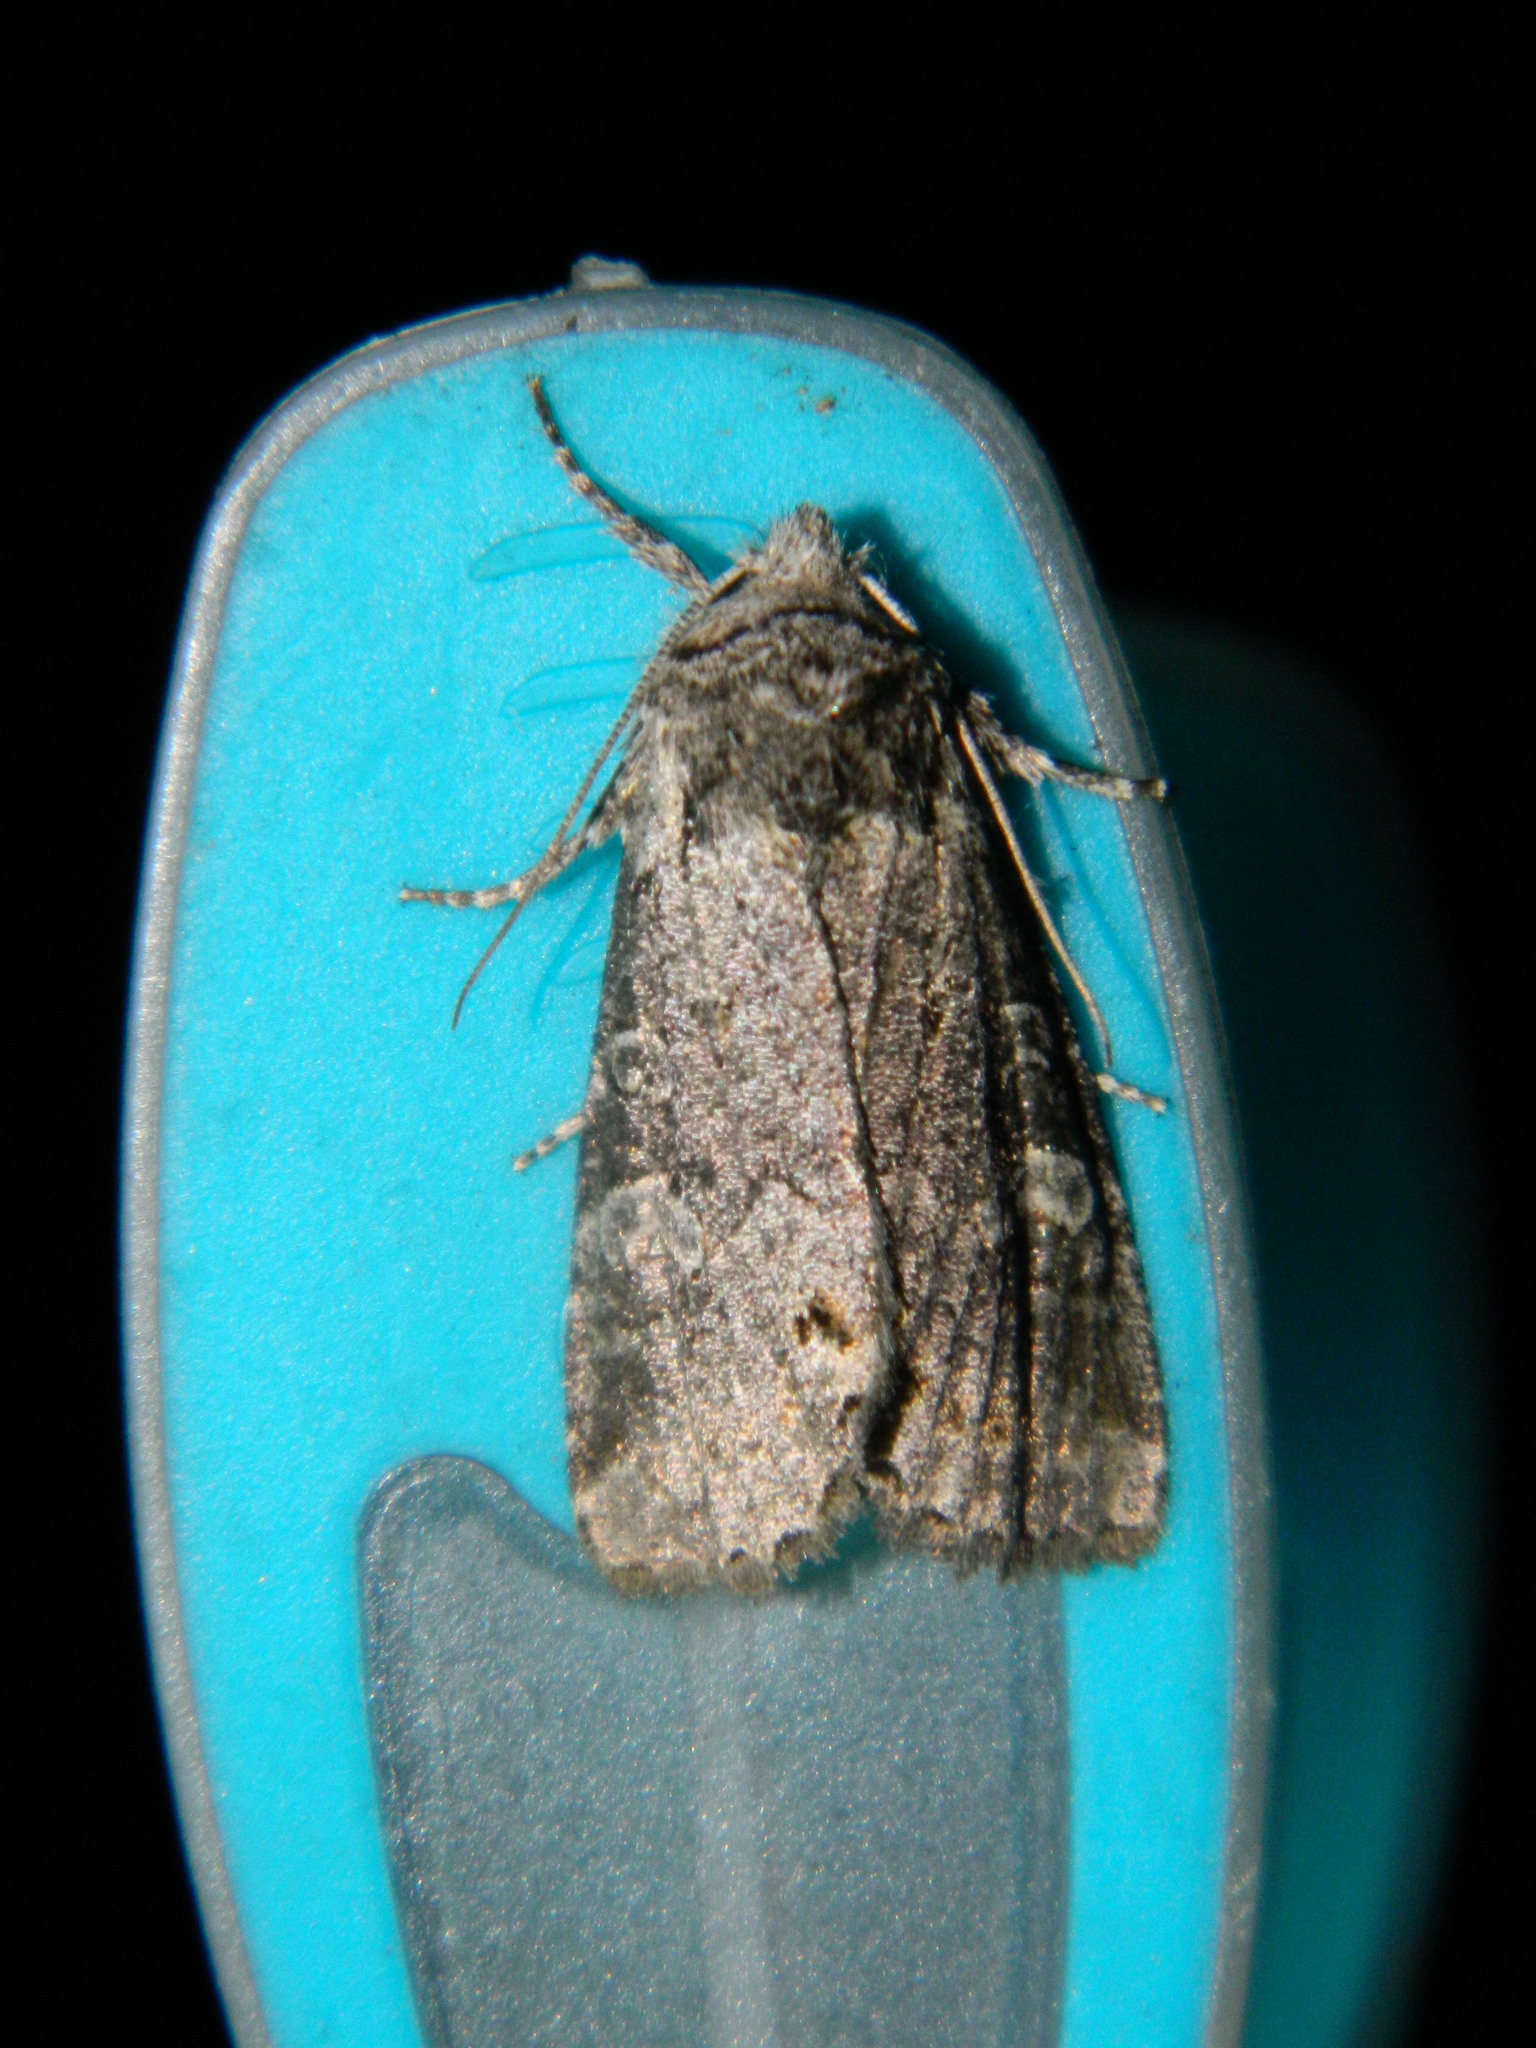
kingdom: Animalia
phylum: Arthropoda
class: Insecta
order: Lepidoptera
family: Noctuidae
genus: Brachylomia
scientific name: Brachylomia algens
